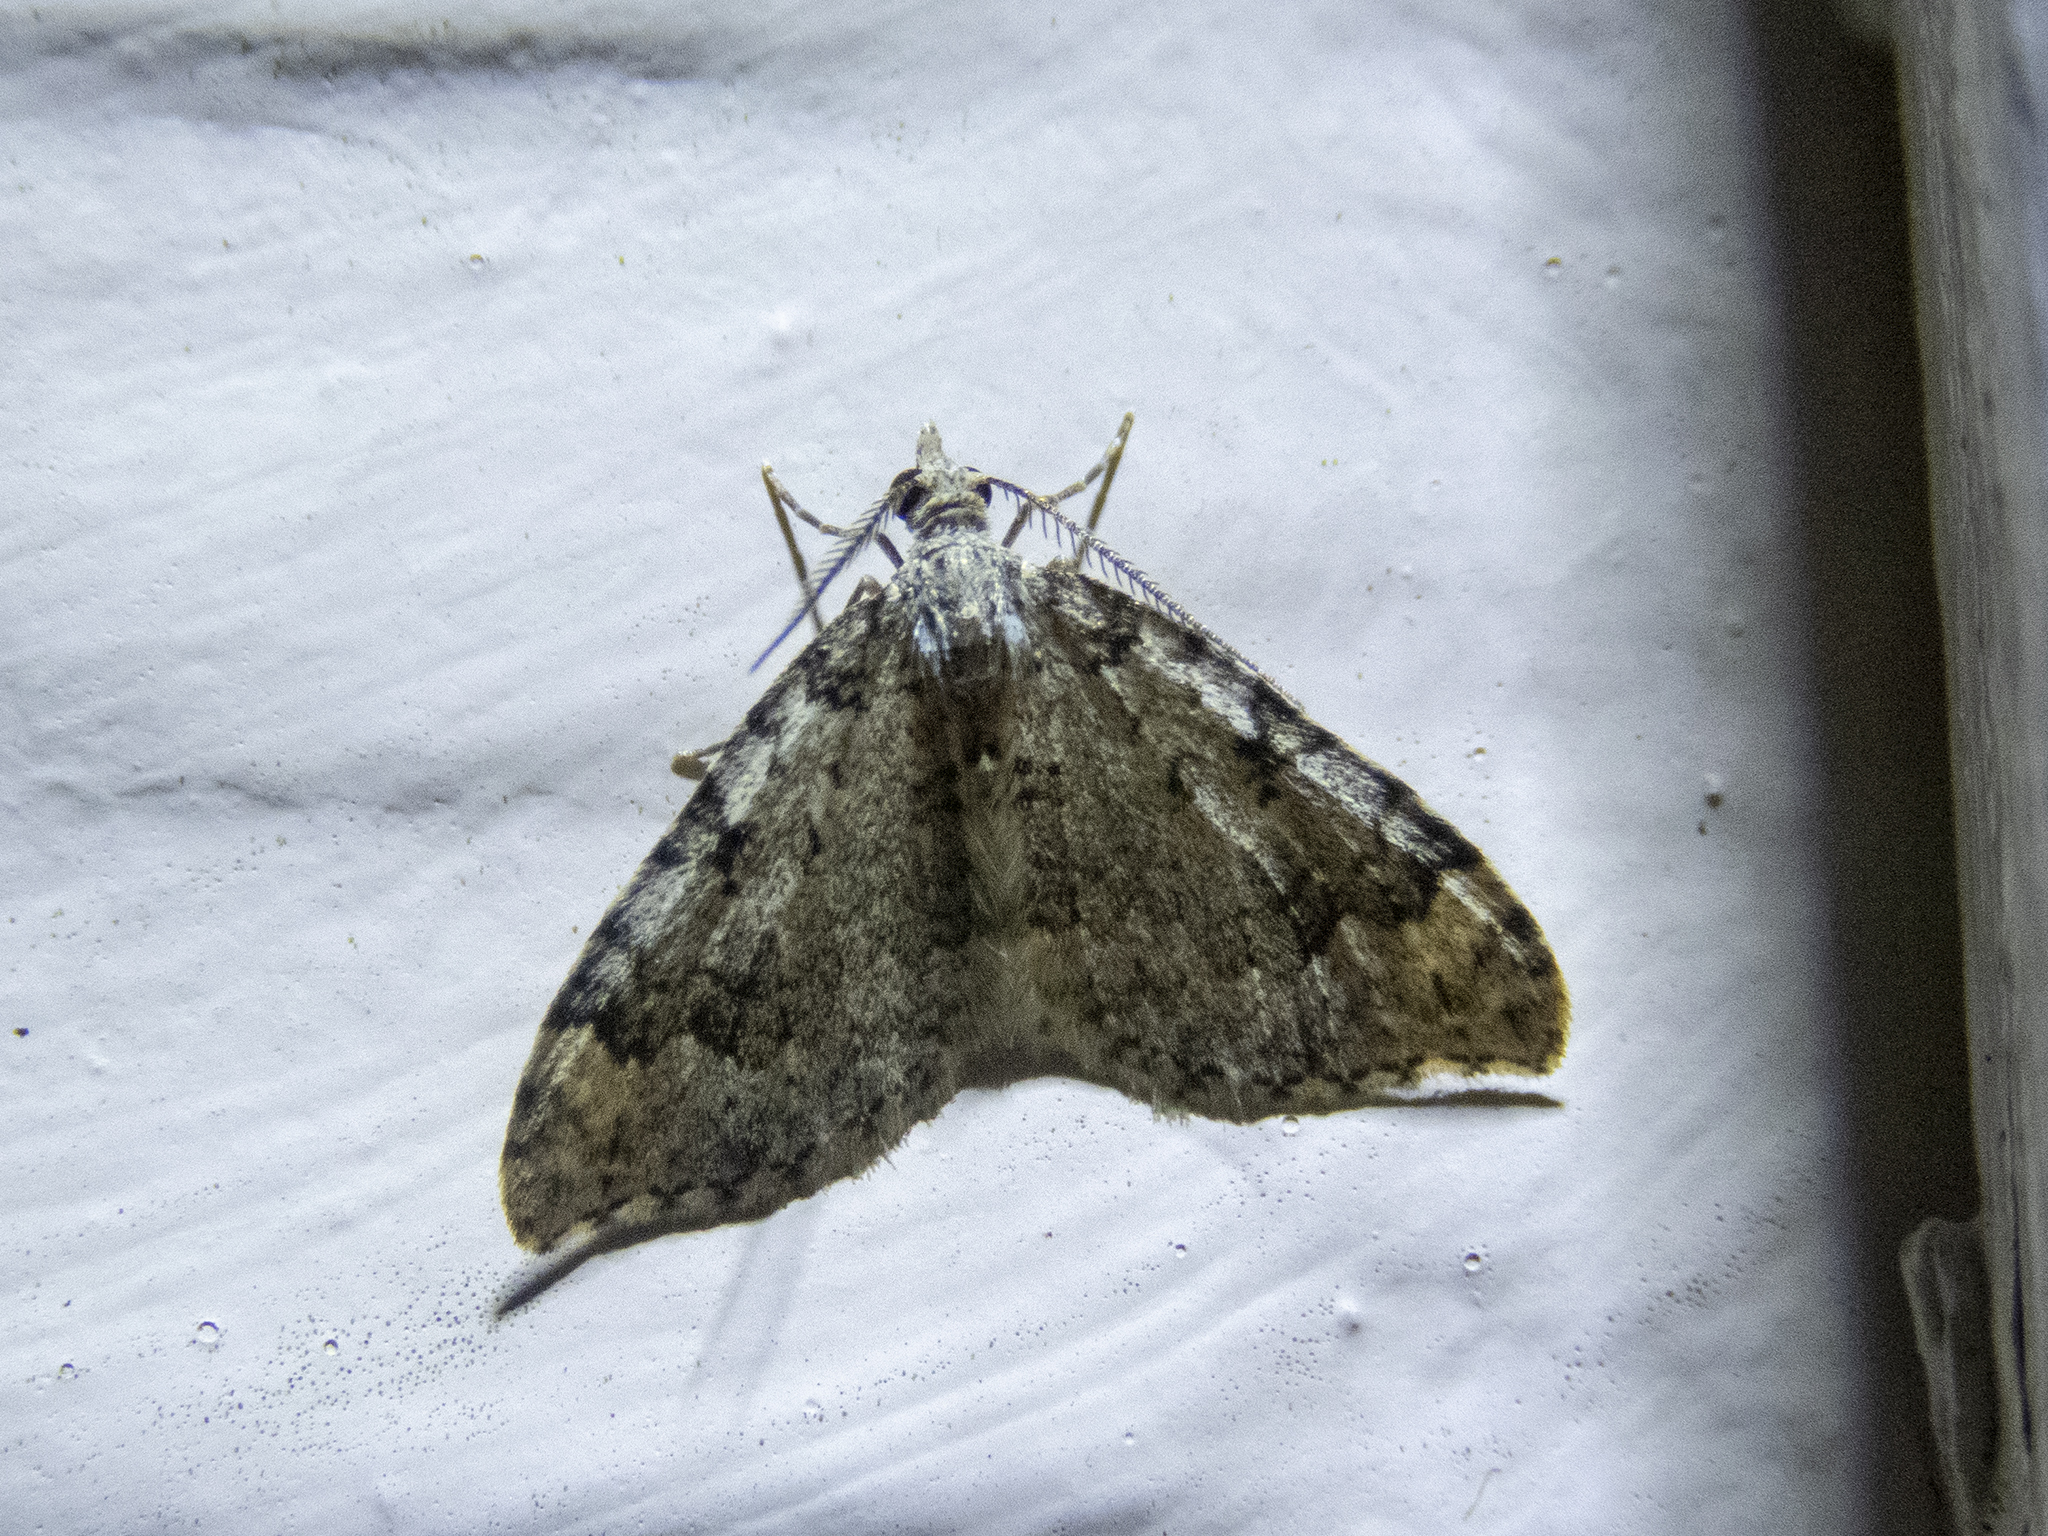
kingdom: Animalia
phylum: Arthropoda
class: Insecta
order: Lepidoptera
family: Geometridae
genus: Helastia
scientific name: Helastia cinerearia
